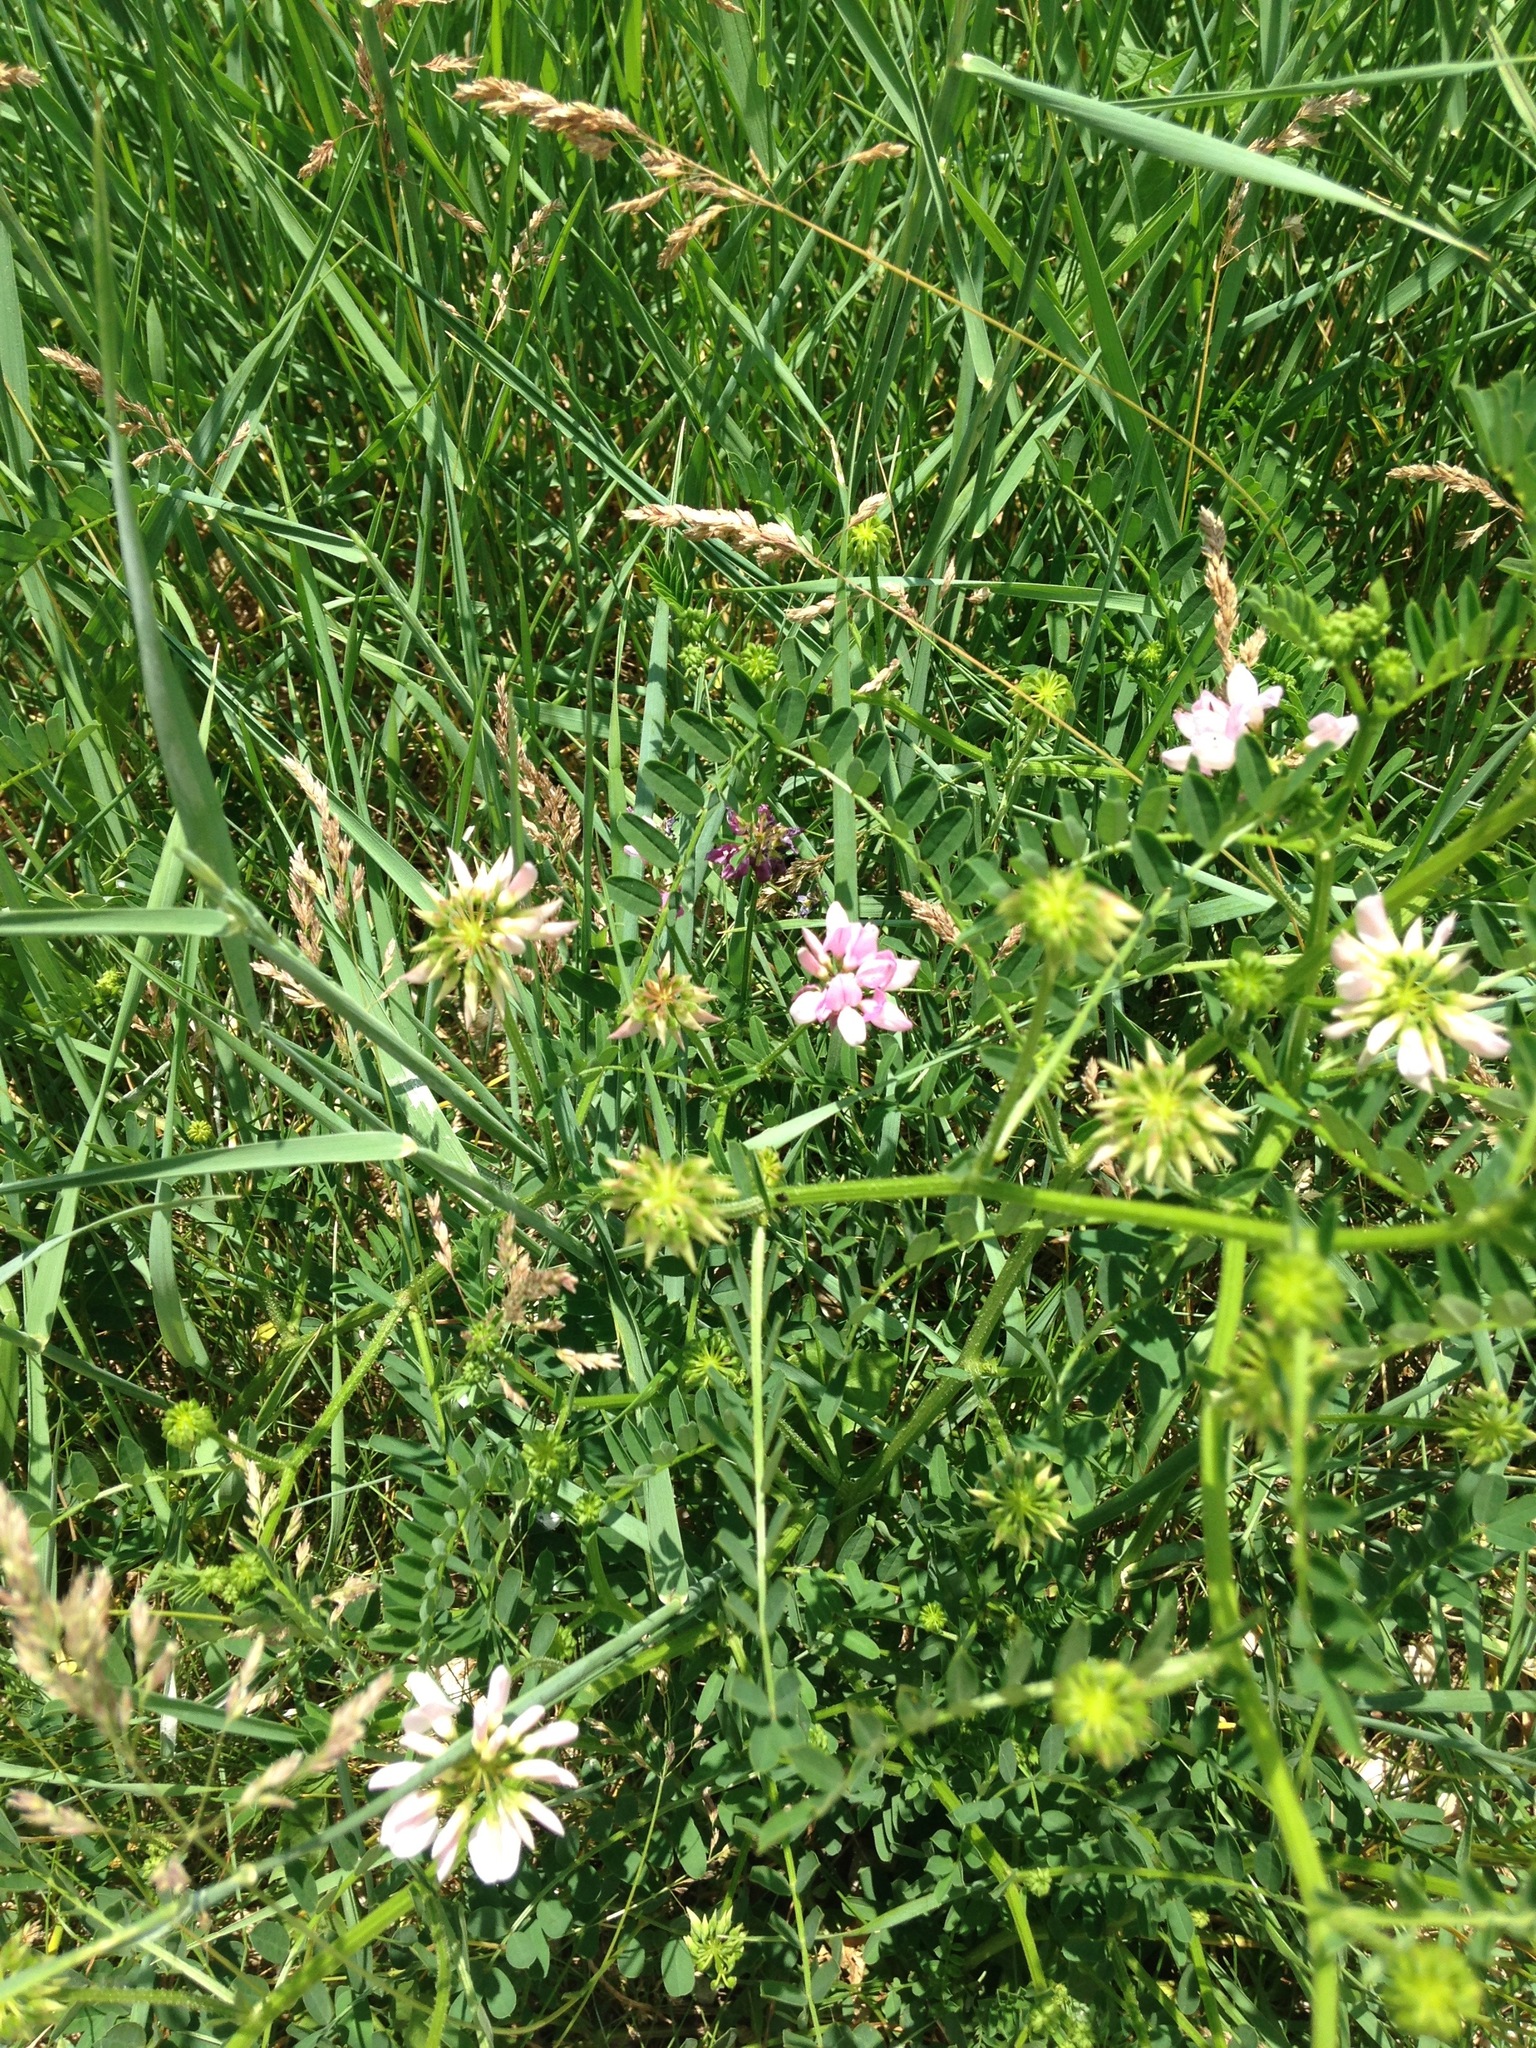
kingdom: Plantae
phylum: Tracheophyta
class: Magnoliopsida
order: Fabales
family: Fabaceae
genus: Coronilla
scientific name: Coronilla varia
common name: Crownvetch
